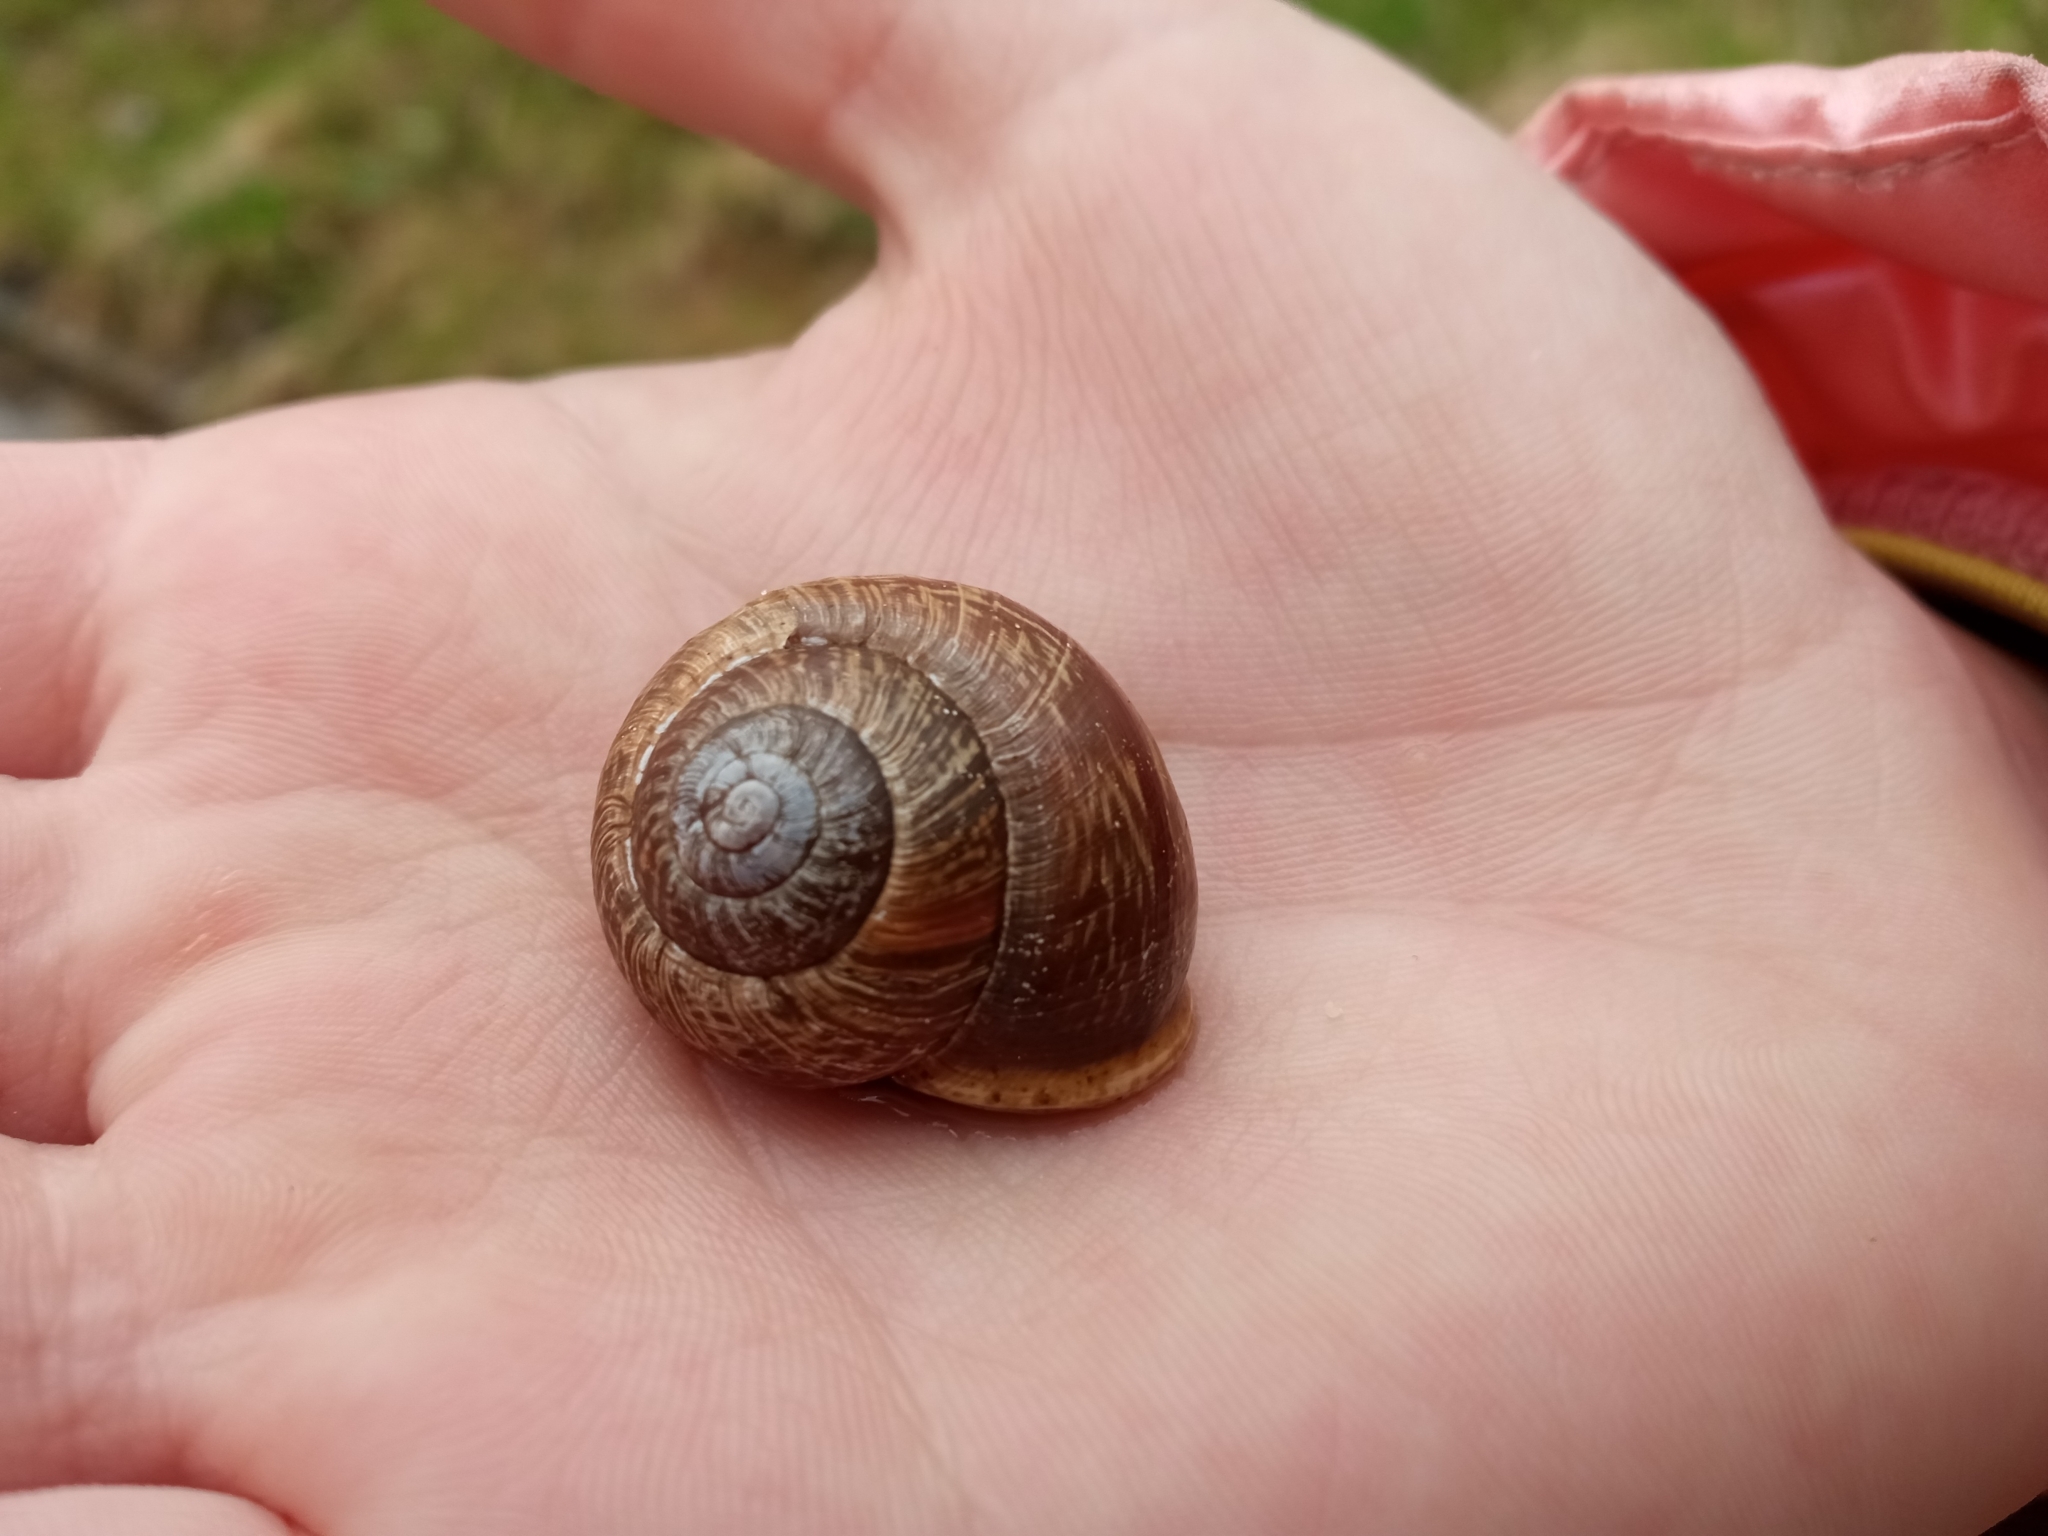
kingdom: Animalia
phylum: Mollusca
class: Gastropoda
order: Stylommatophora
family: Helicidae
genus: Arianta
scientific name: Arianta arbustorum
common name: Copse snail
